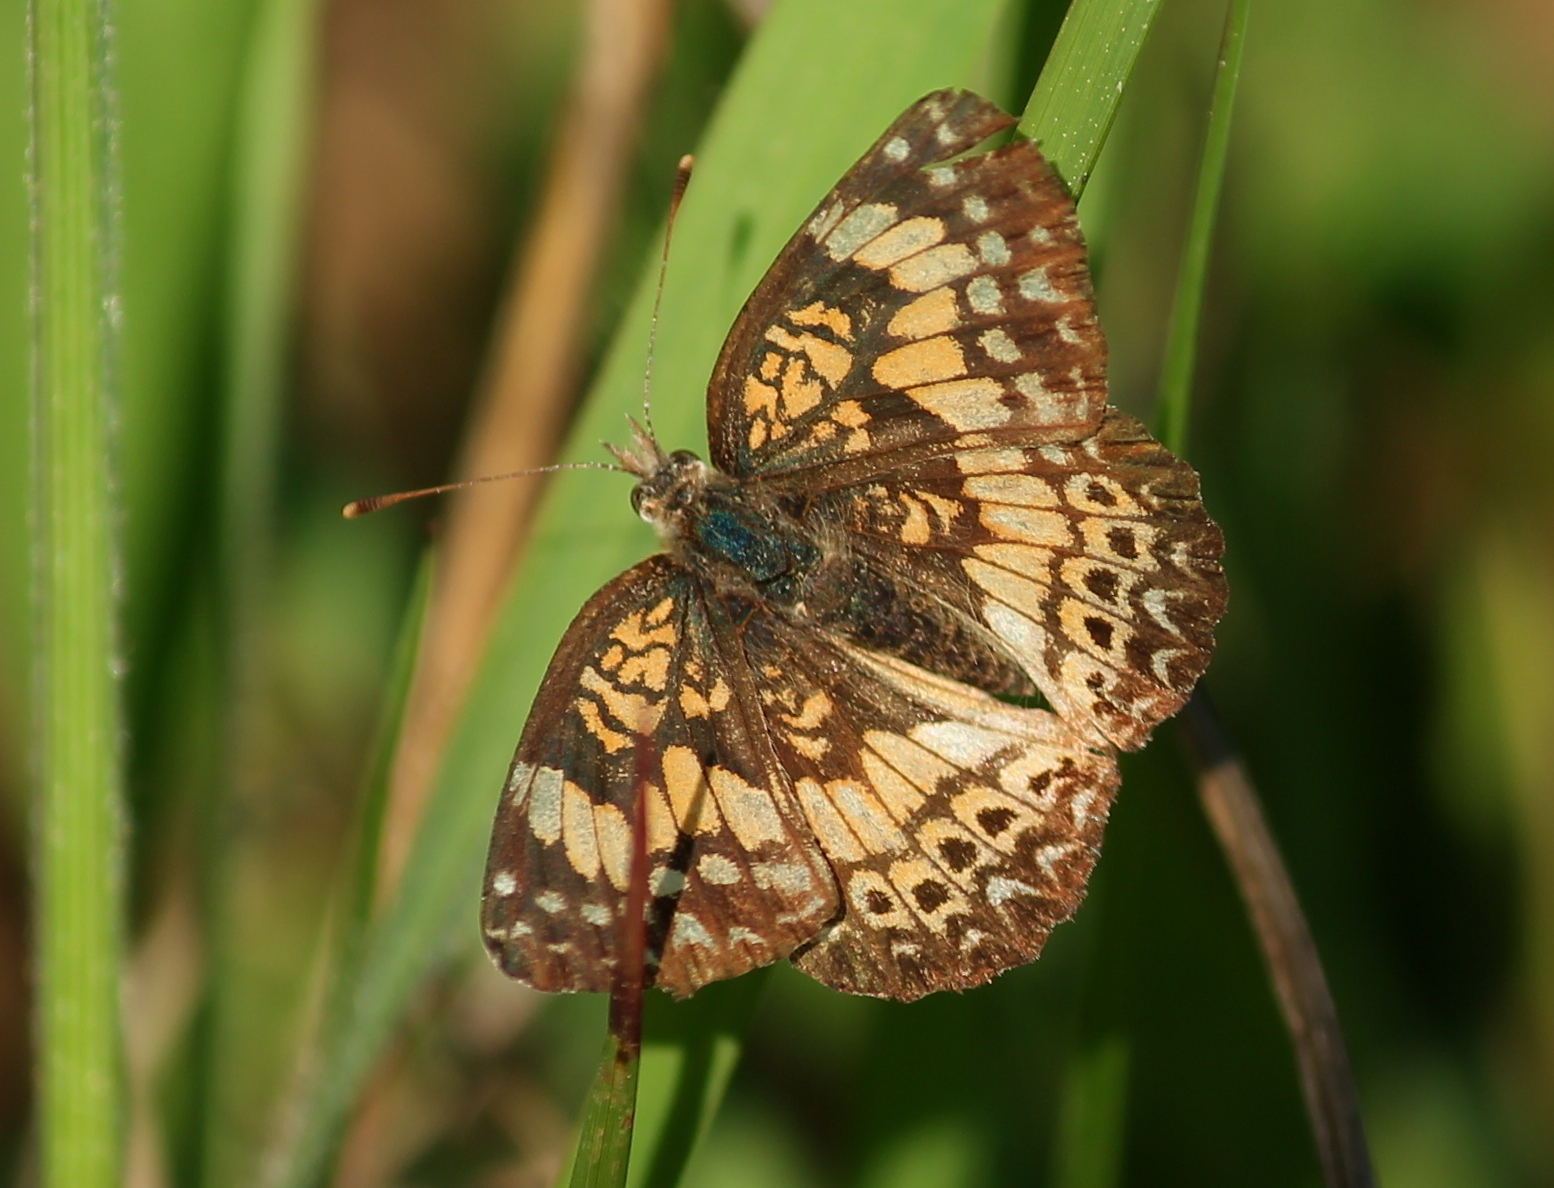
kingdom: Animalia
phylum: Arthropoda
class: Insecta
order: Lepidoptera
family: Nymphalidae
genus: Chlosyne
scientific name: Chlosyne gorgone
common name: Gorgone checkerspot
